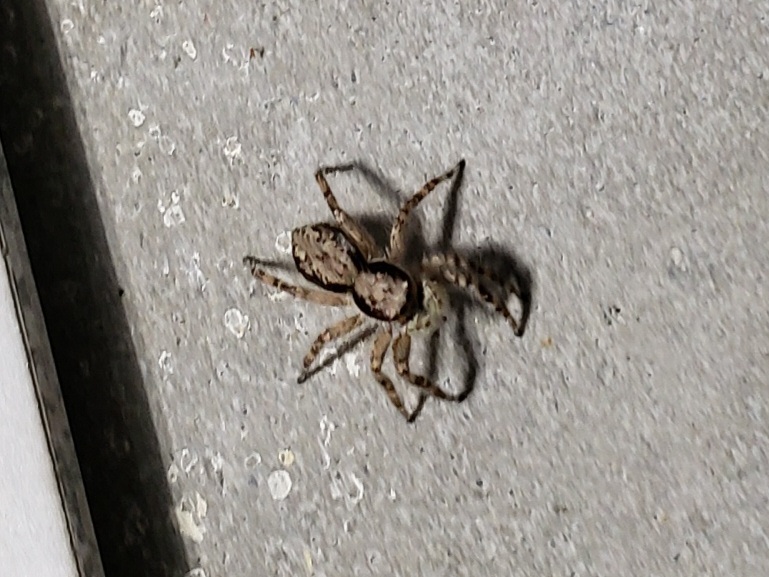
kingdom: Animalia
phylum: Arthropoda
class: Arachnida
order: Araneae
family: Salticidae
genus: Menemerus
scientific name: Menemerus bivittatus
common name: Gray wall jumper
